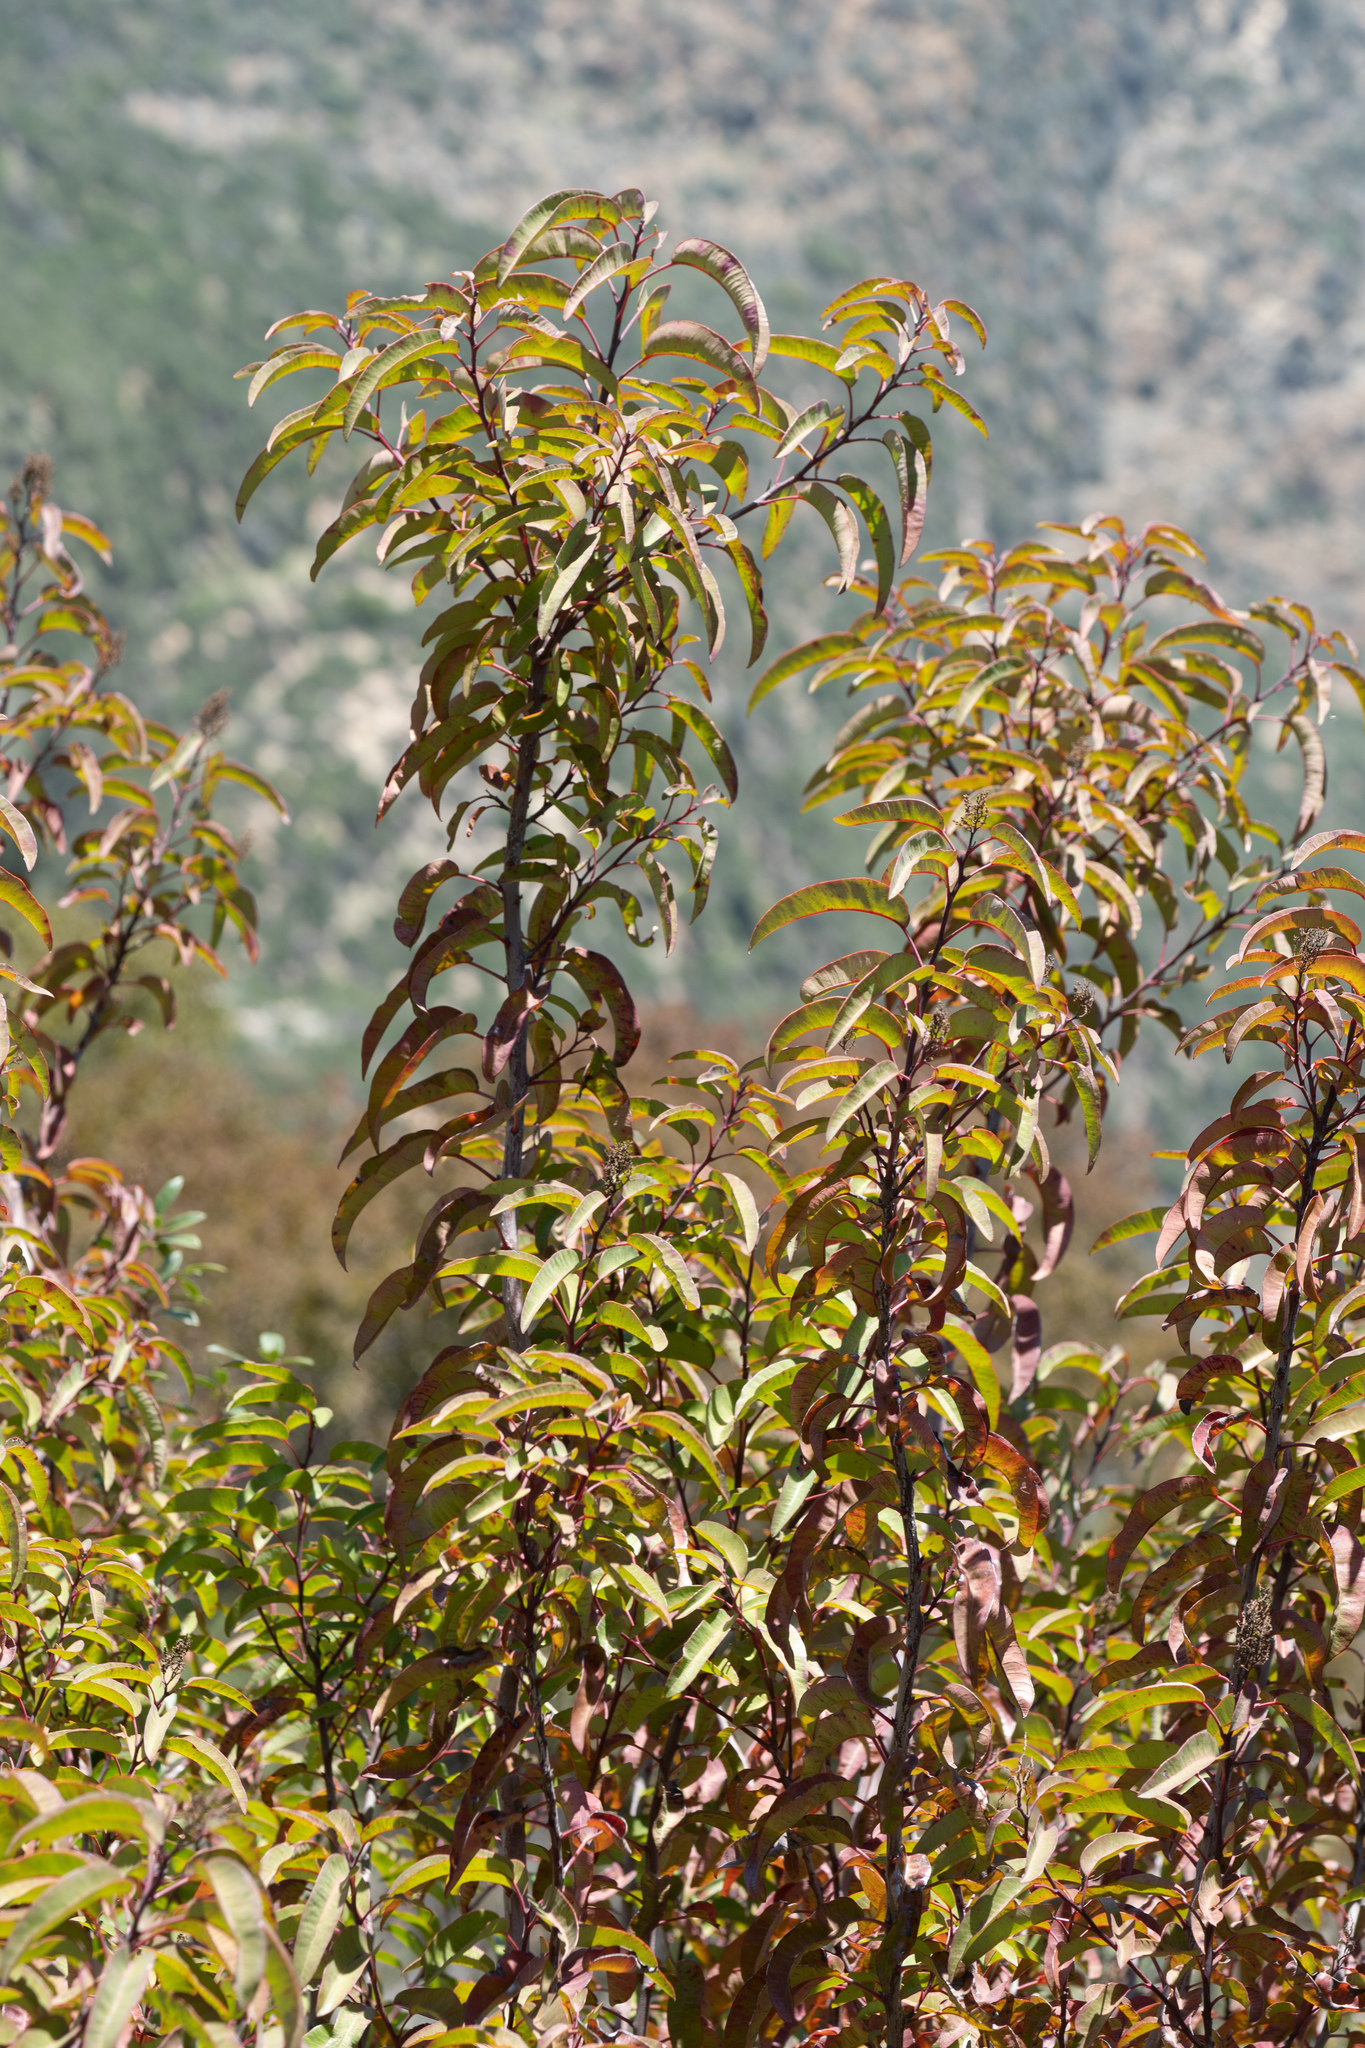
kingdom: Plantae
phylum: Tracheophyta
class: Magnoliopsida
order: Sapindales
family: Anacardiaceae
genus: Malosma
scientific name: Malosma laurina
